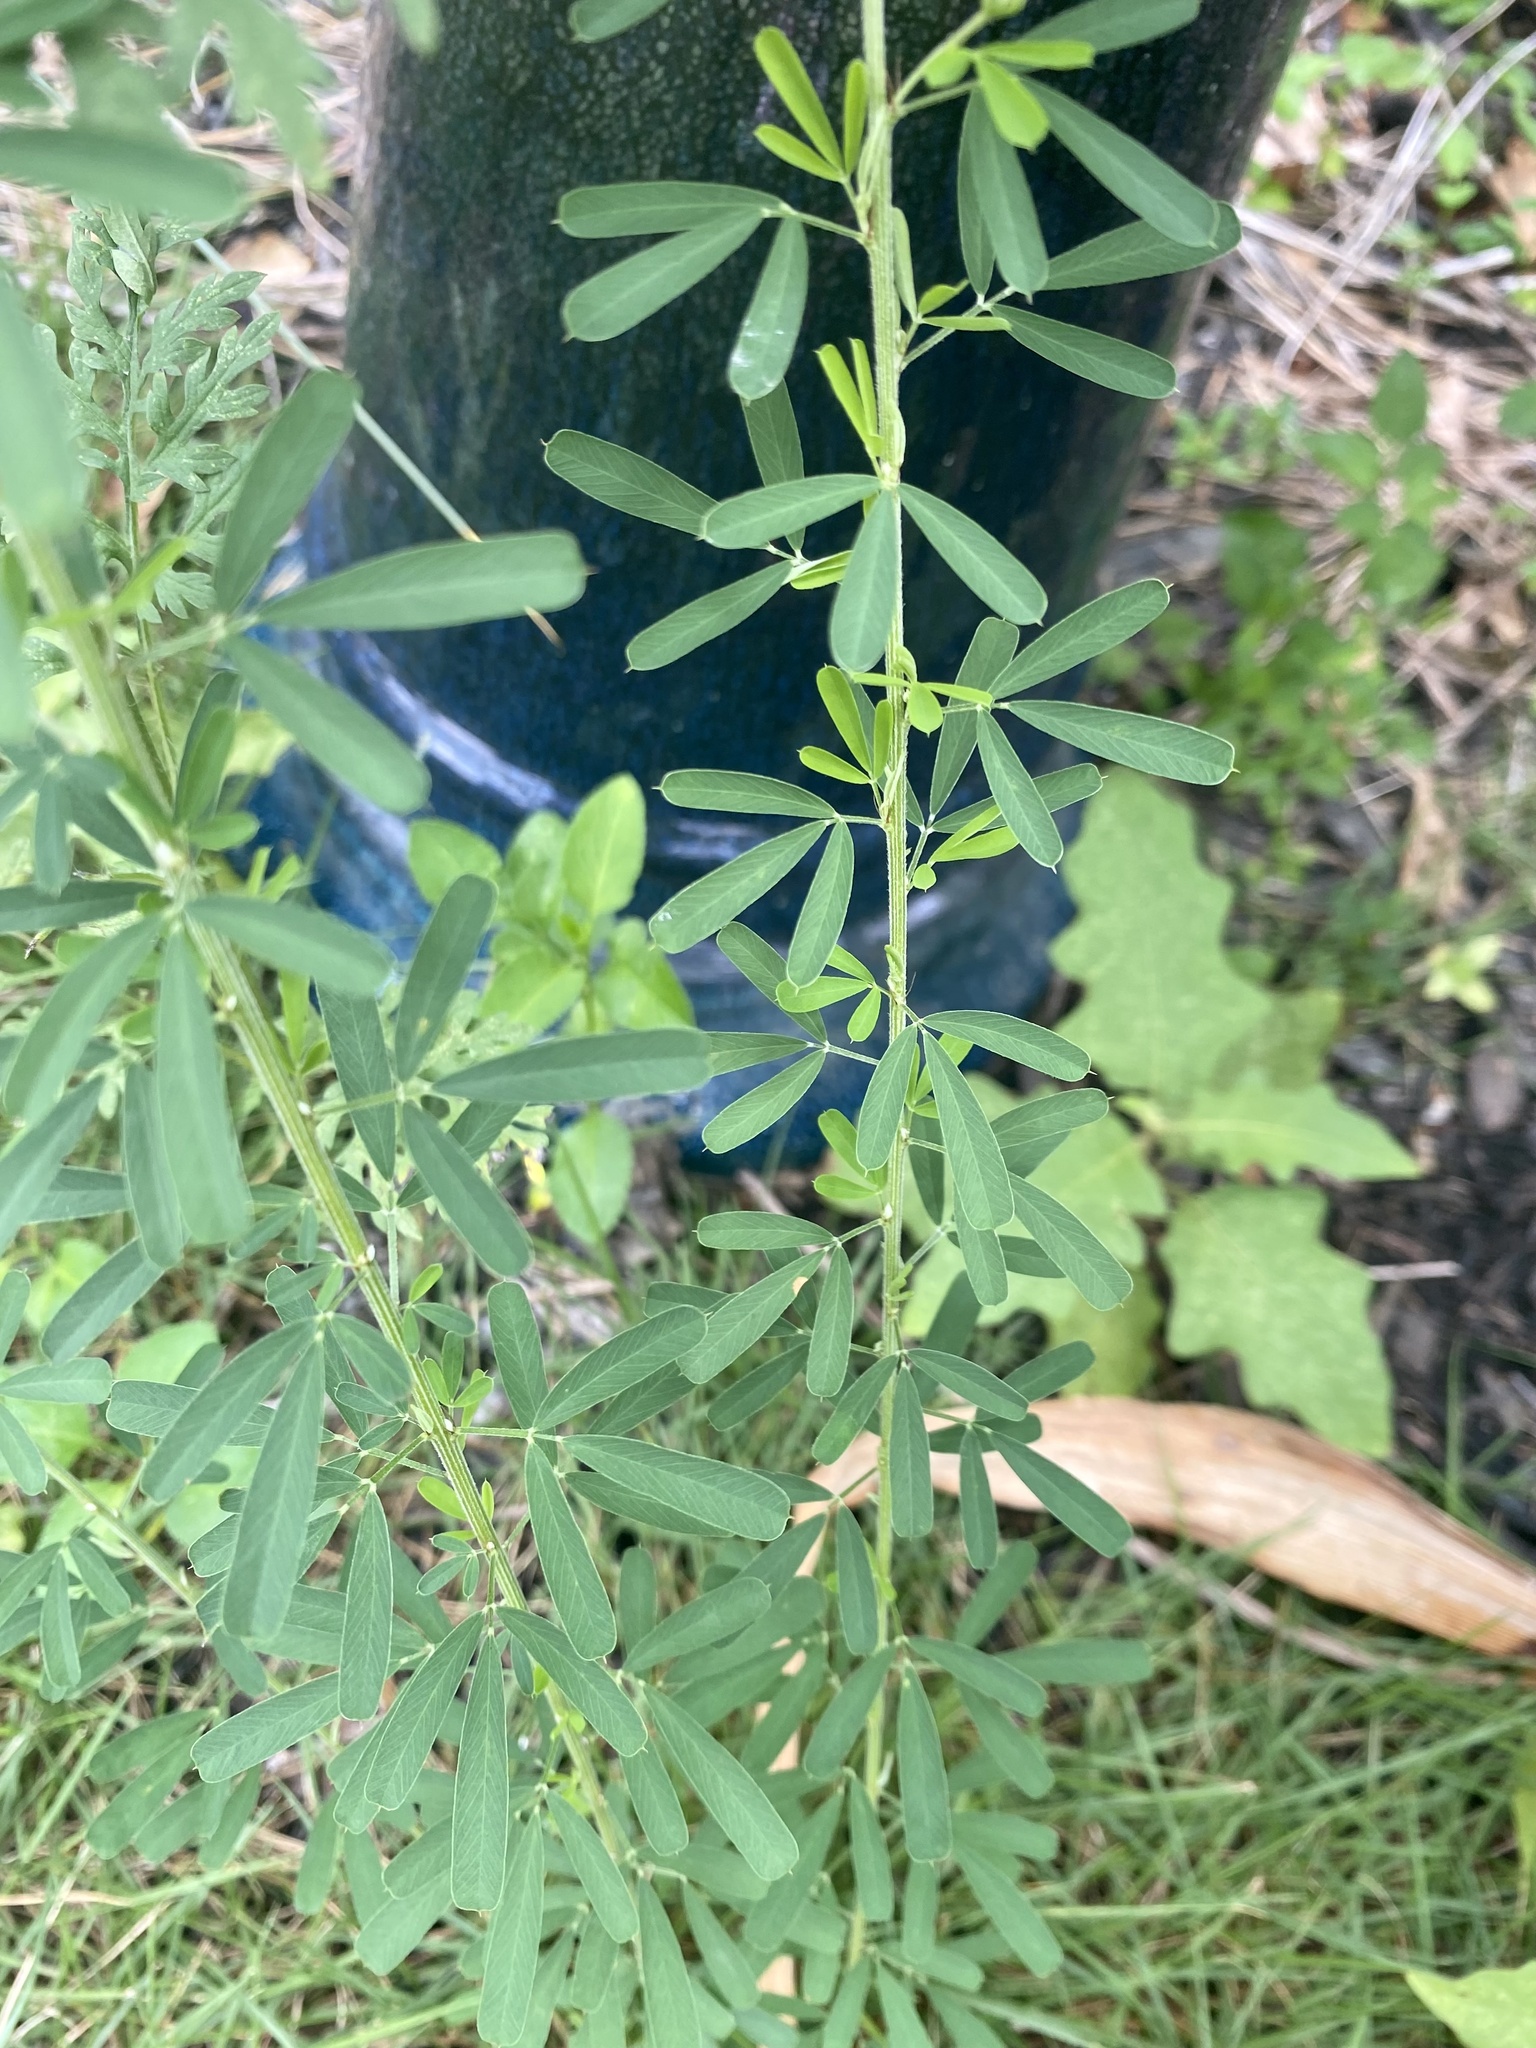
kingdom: Plantae
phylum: Tracheophyta
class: Magnoliopsida
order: Fabales
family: Fabaceae
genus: Lespedeza
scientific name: Lespedeza cuneata
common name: Chinese bush-clover
